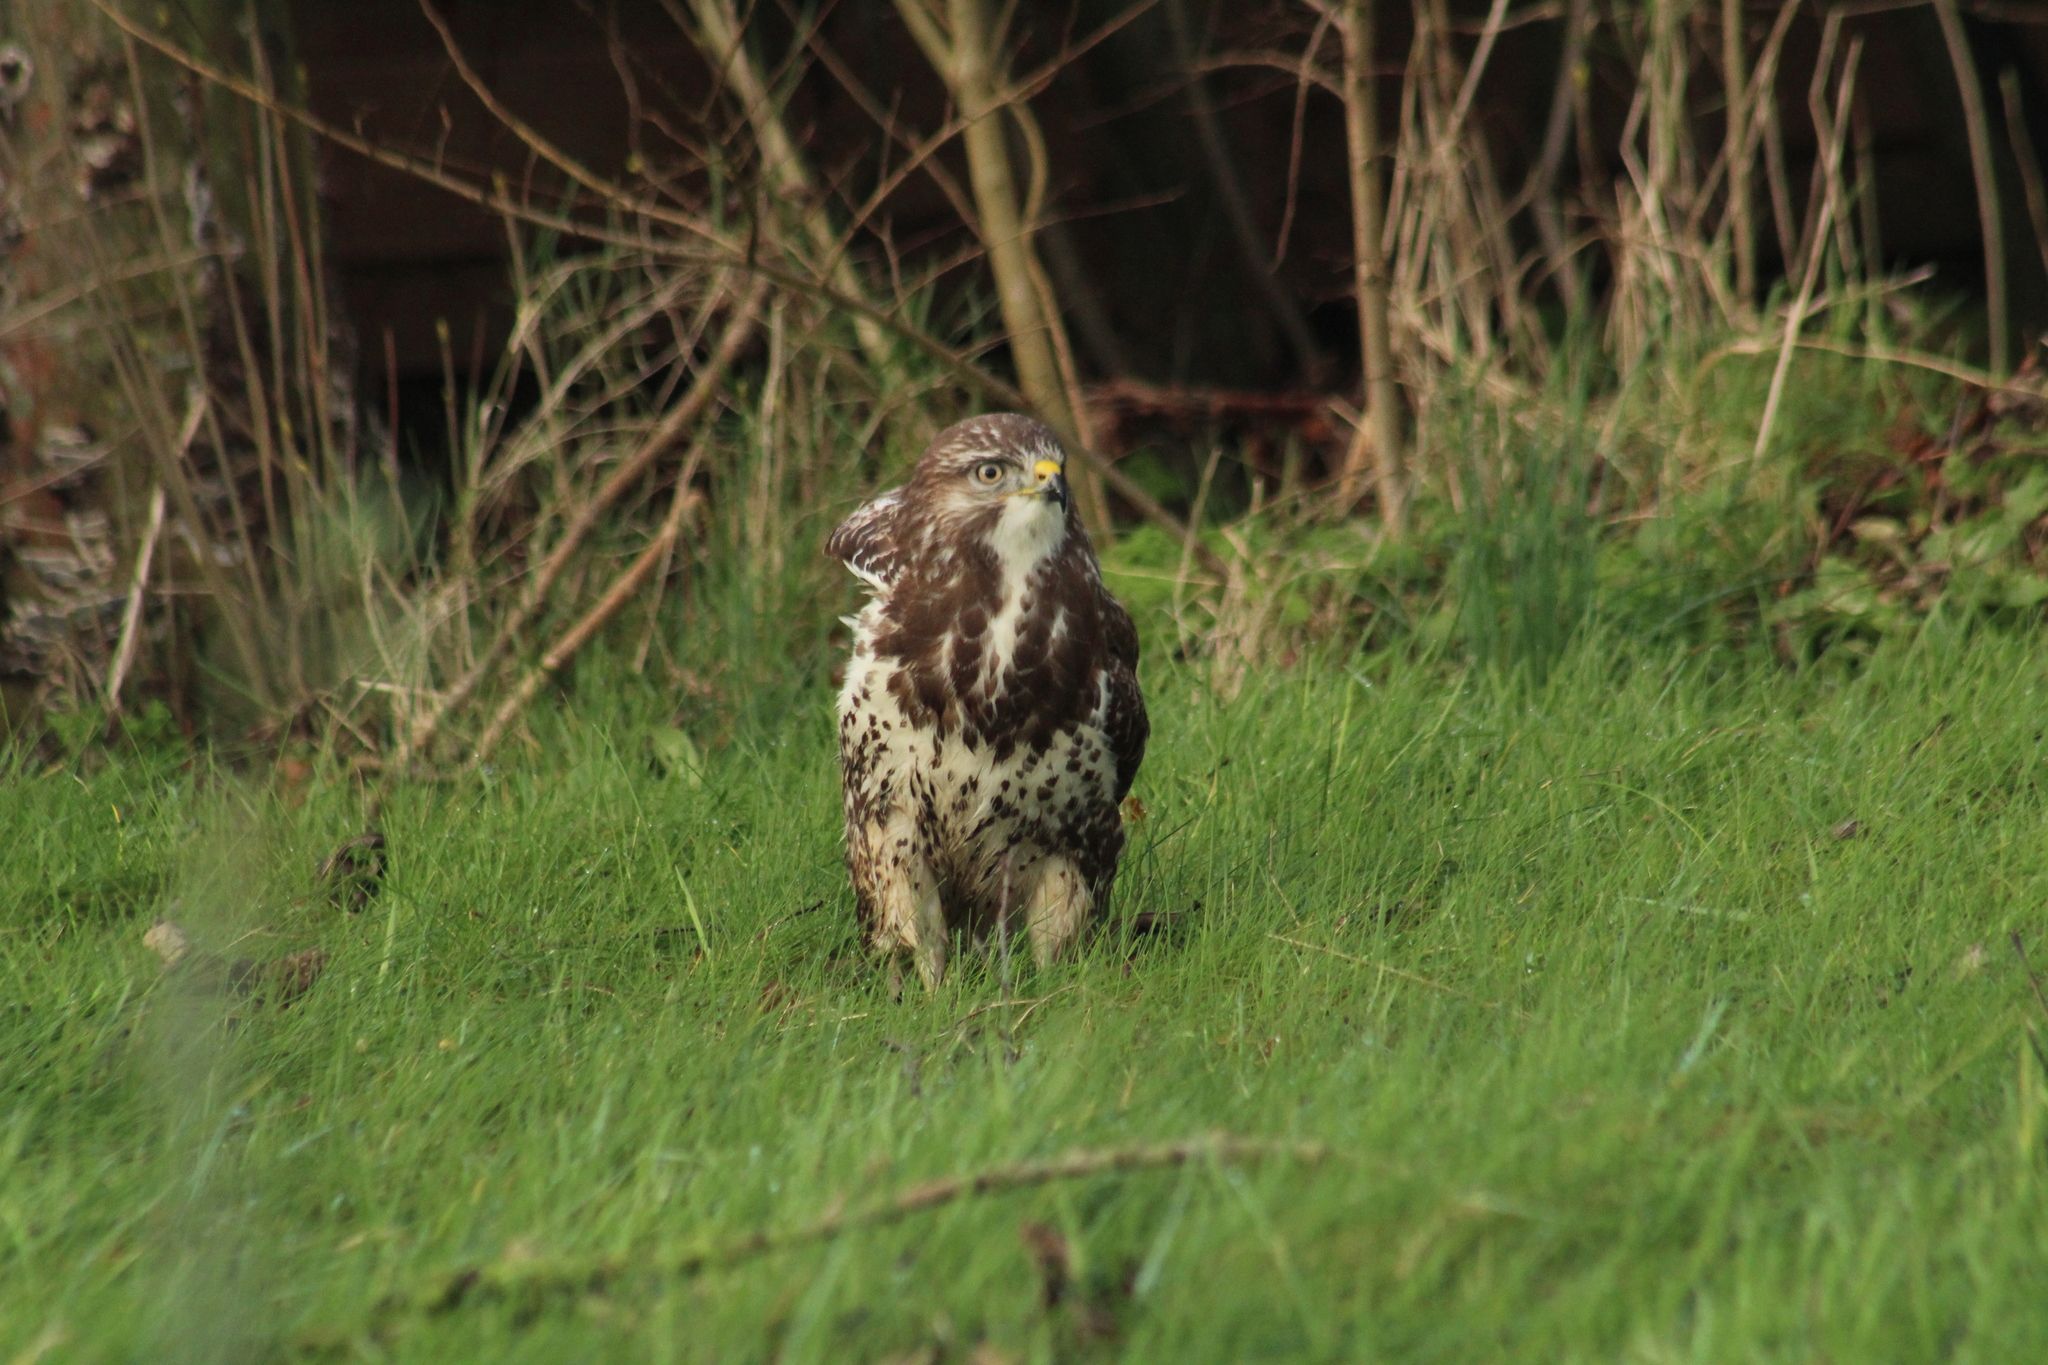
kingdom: Animalia
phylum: Chordata
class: Aves
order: Accipitriformes
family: Accipitridae
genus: Buteo
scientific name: Buteo buteo
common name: Common buzzard
